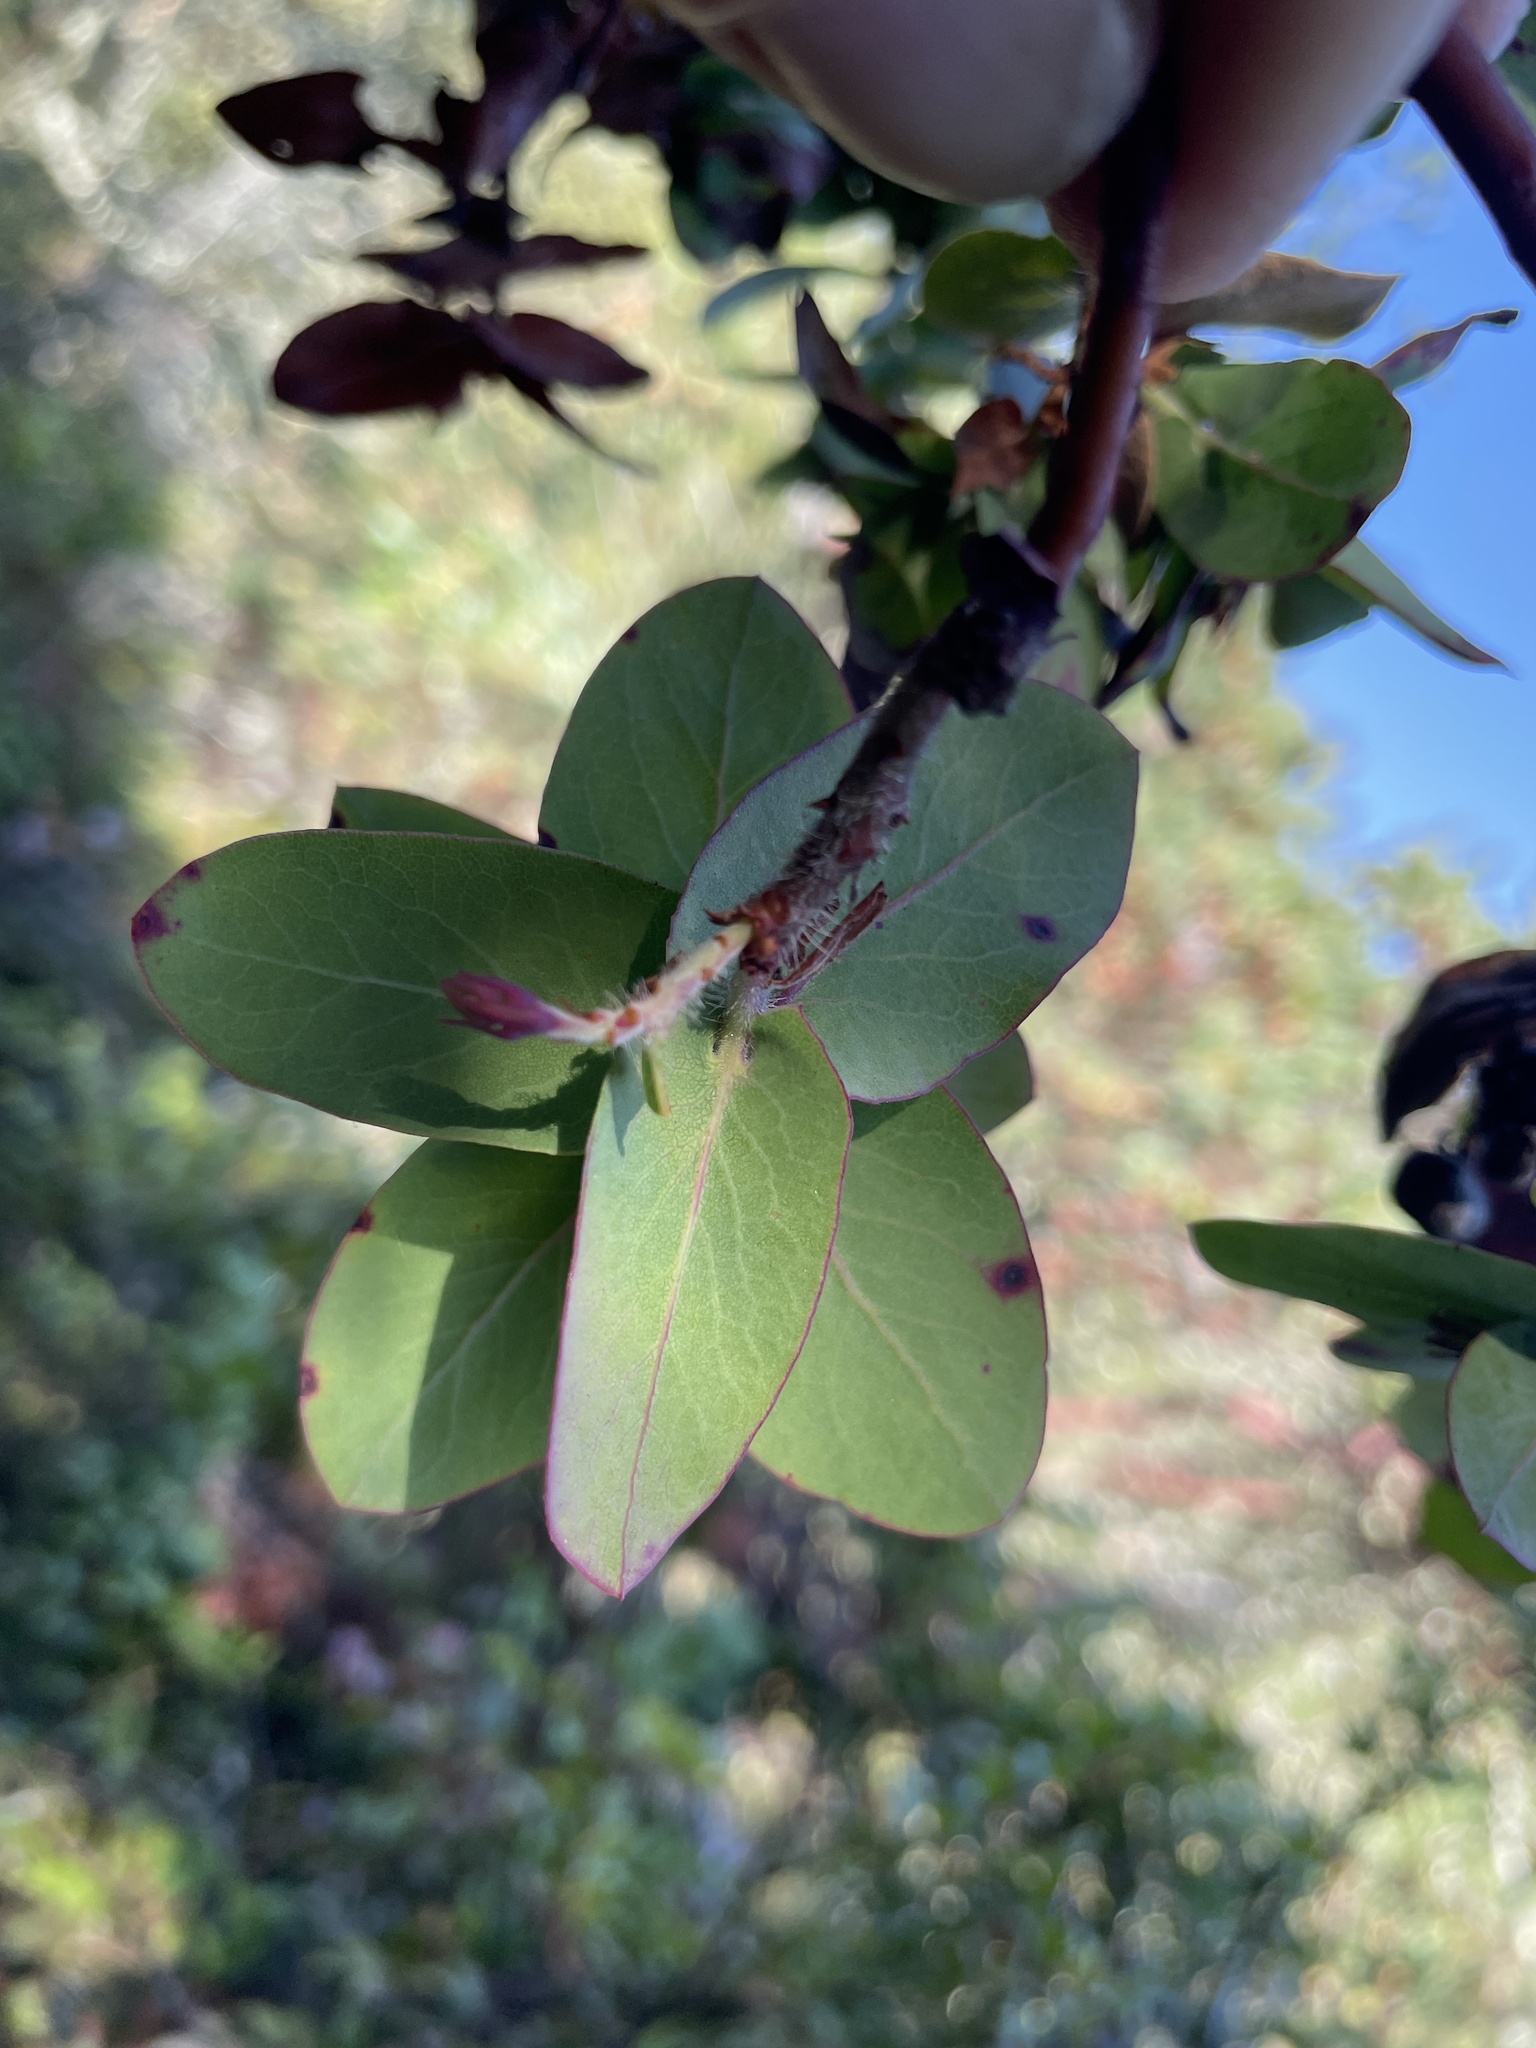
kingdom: Plantae
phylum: Tracheophyta
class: Magnoliopsida
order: Ericales
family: Ericaceae
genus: Arctostaphylos
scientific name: Arctostaphylos pallida
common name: Pallid manzanita
